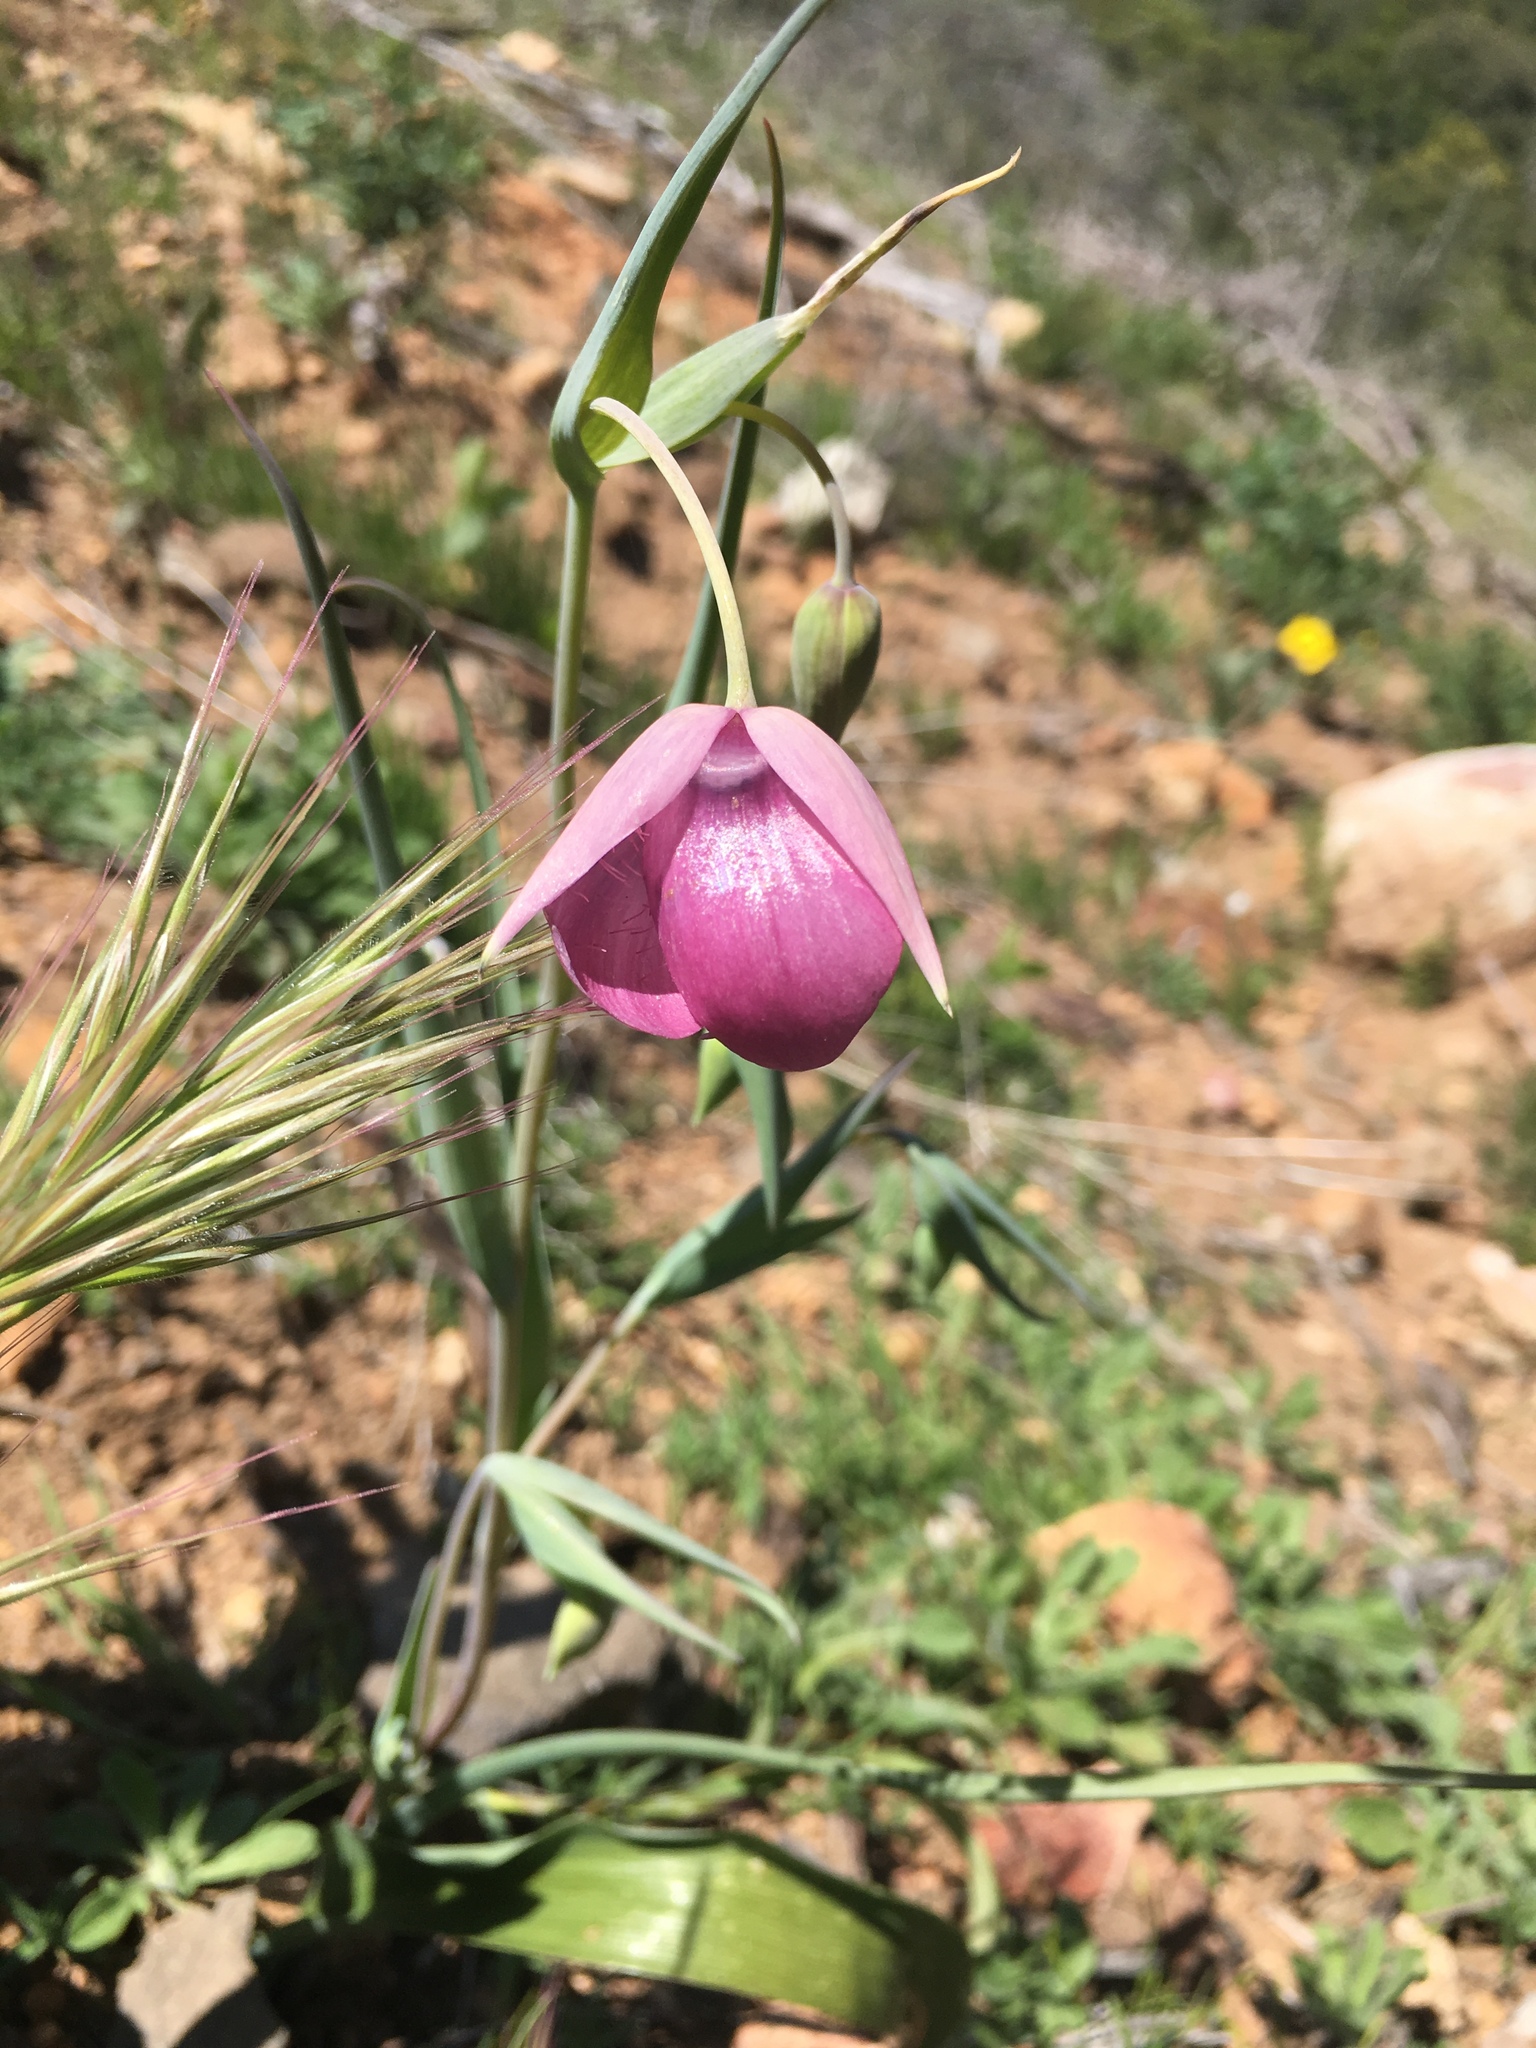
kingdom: Plantae
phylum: Tracheophyta
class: Liliopsida
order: Liliales
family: Liliaceae
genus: Calochortus
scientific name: Calochortus amoenus
